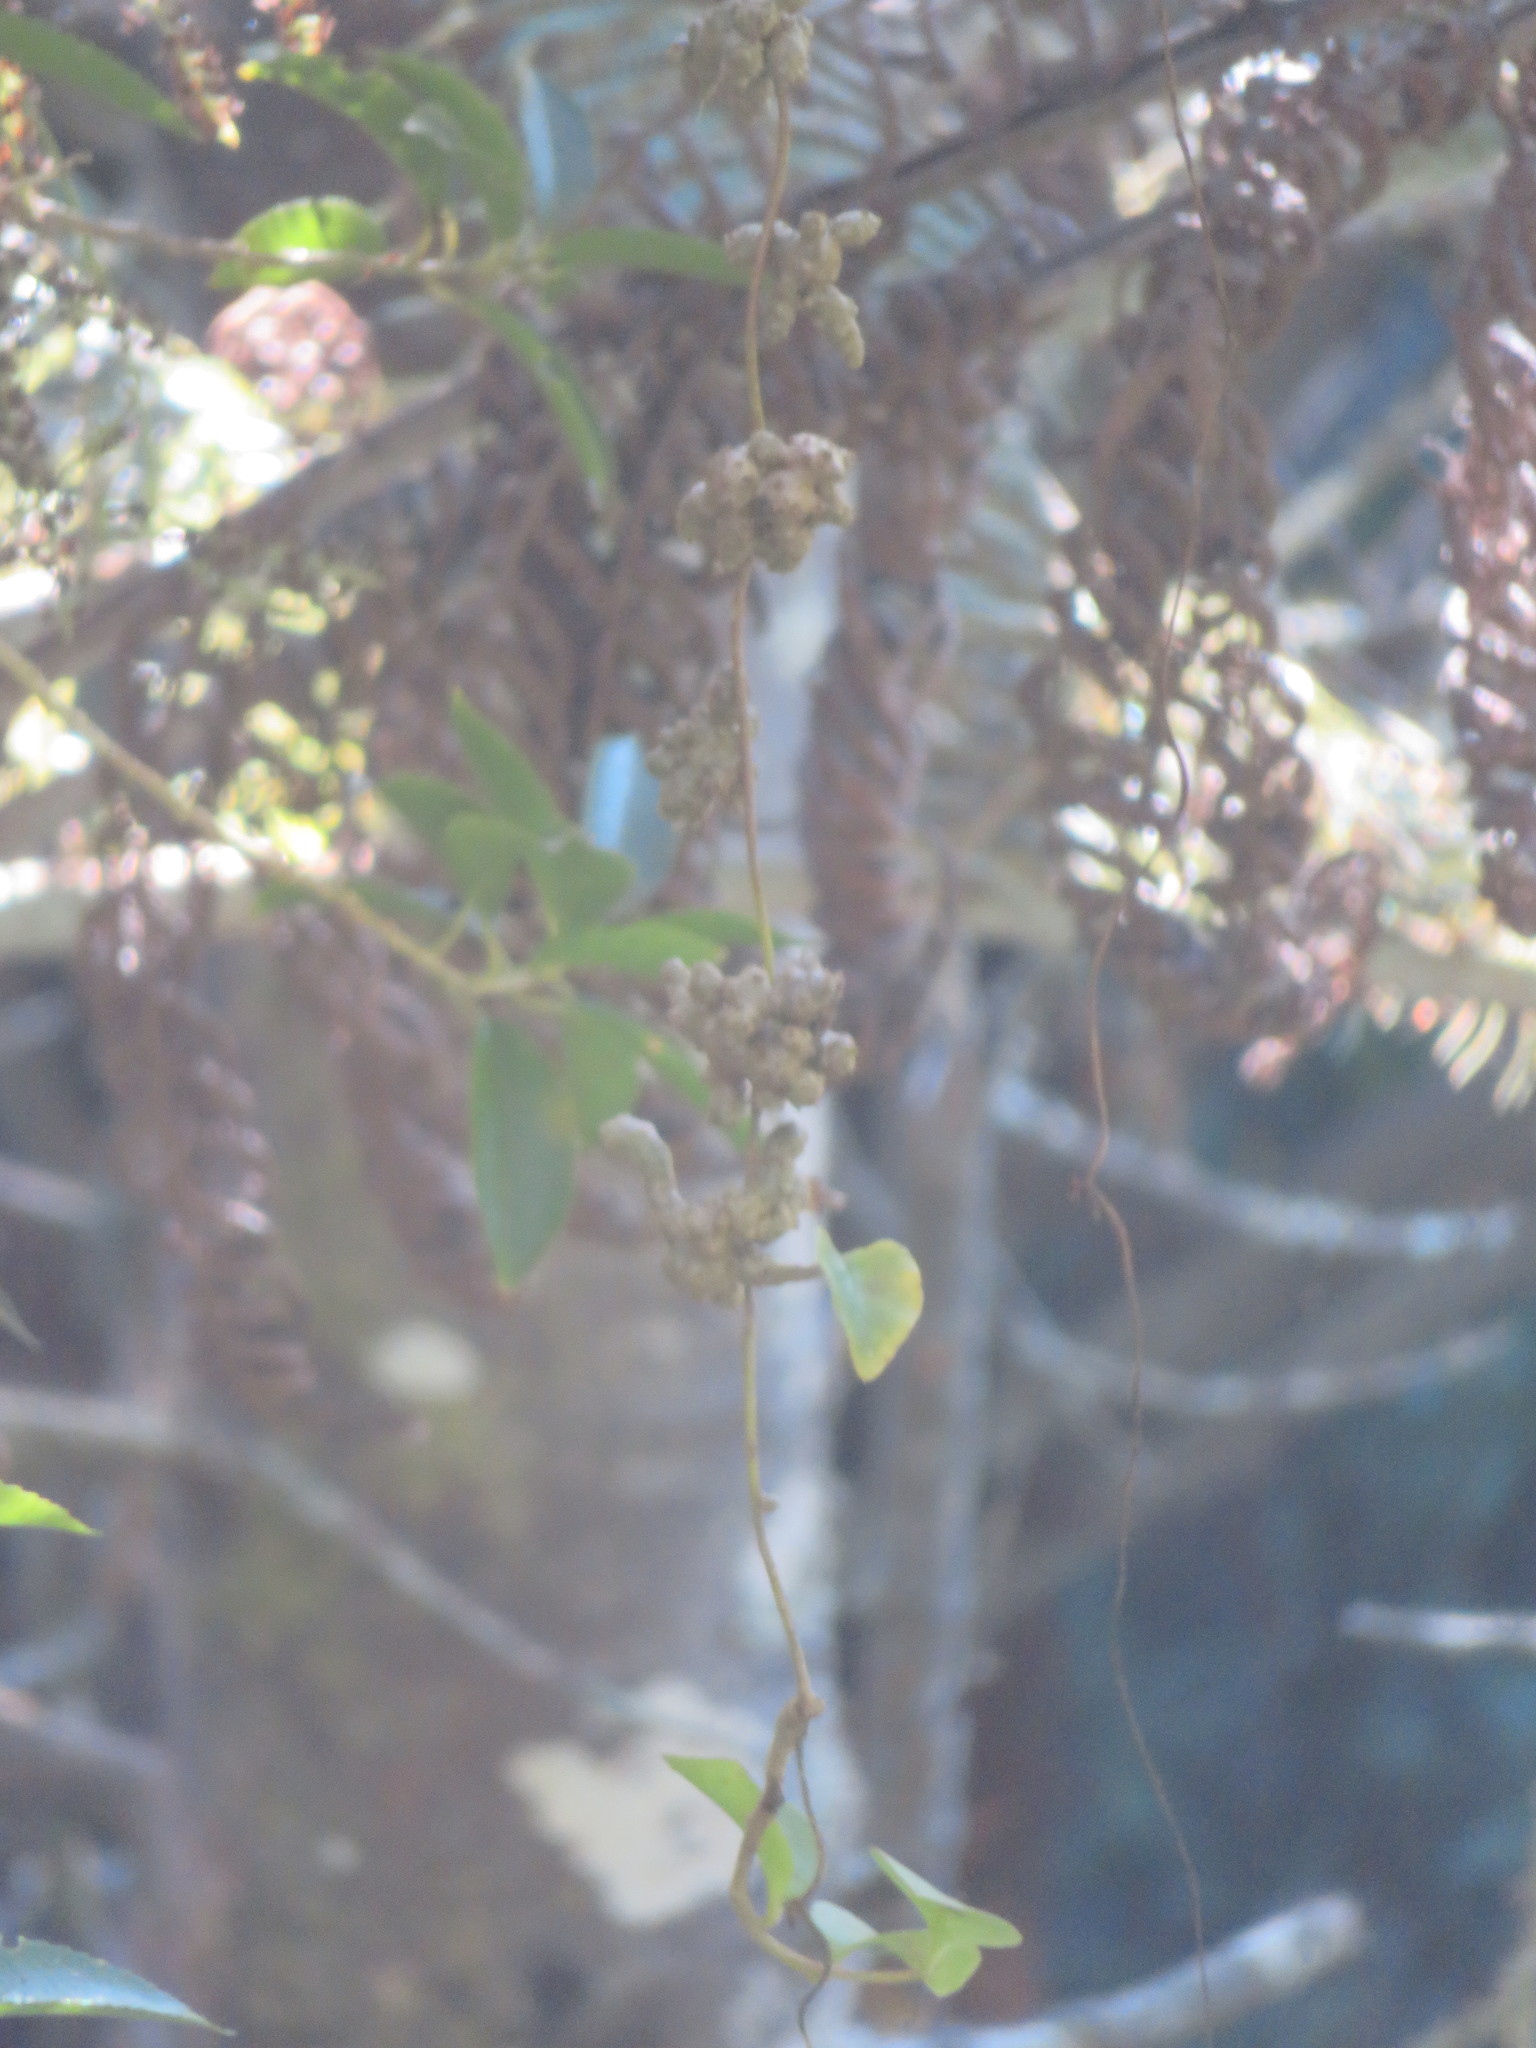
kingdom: Plantae
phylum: Tracheophyta
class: Pinopsida
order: Pinales
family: Phyllocladaceae
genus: Phyllocladus
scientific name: Phyllocladus trichomanoides
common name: Celery pine
